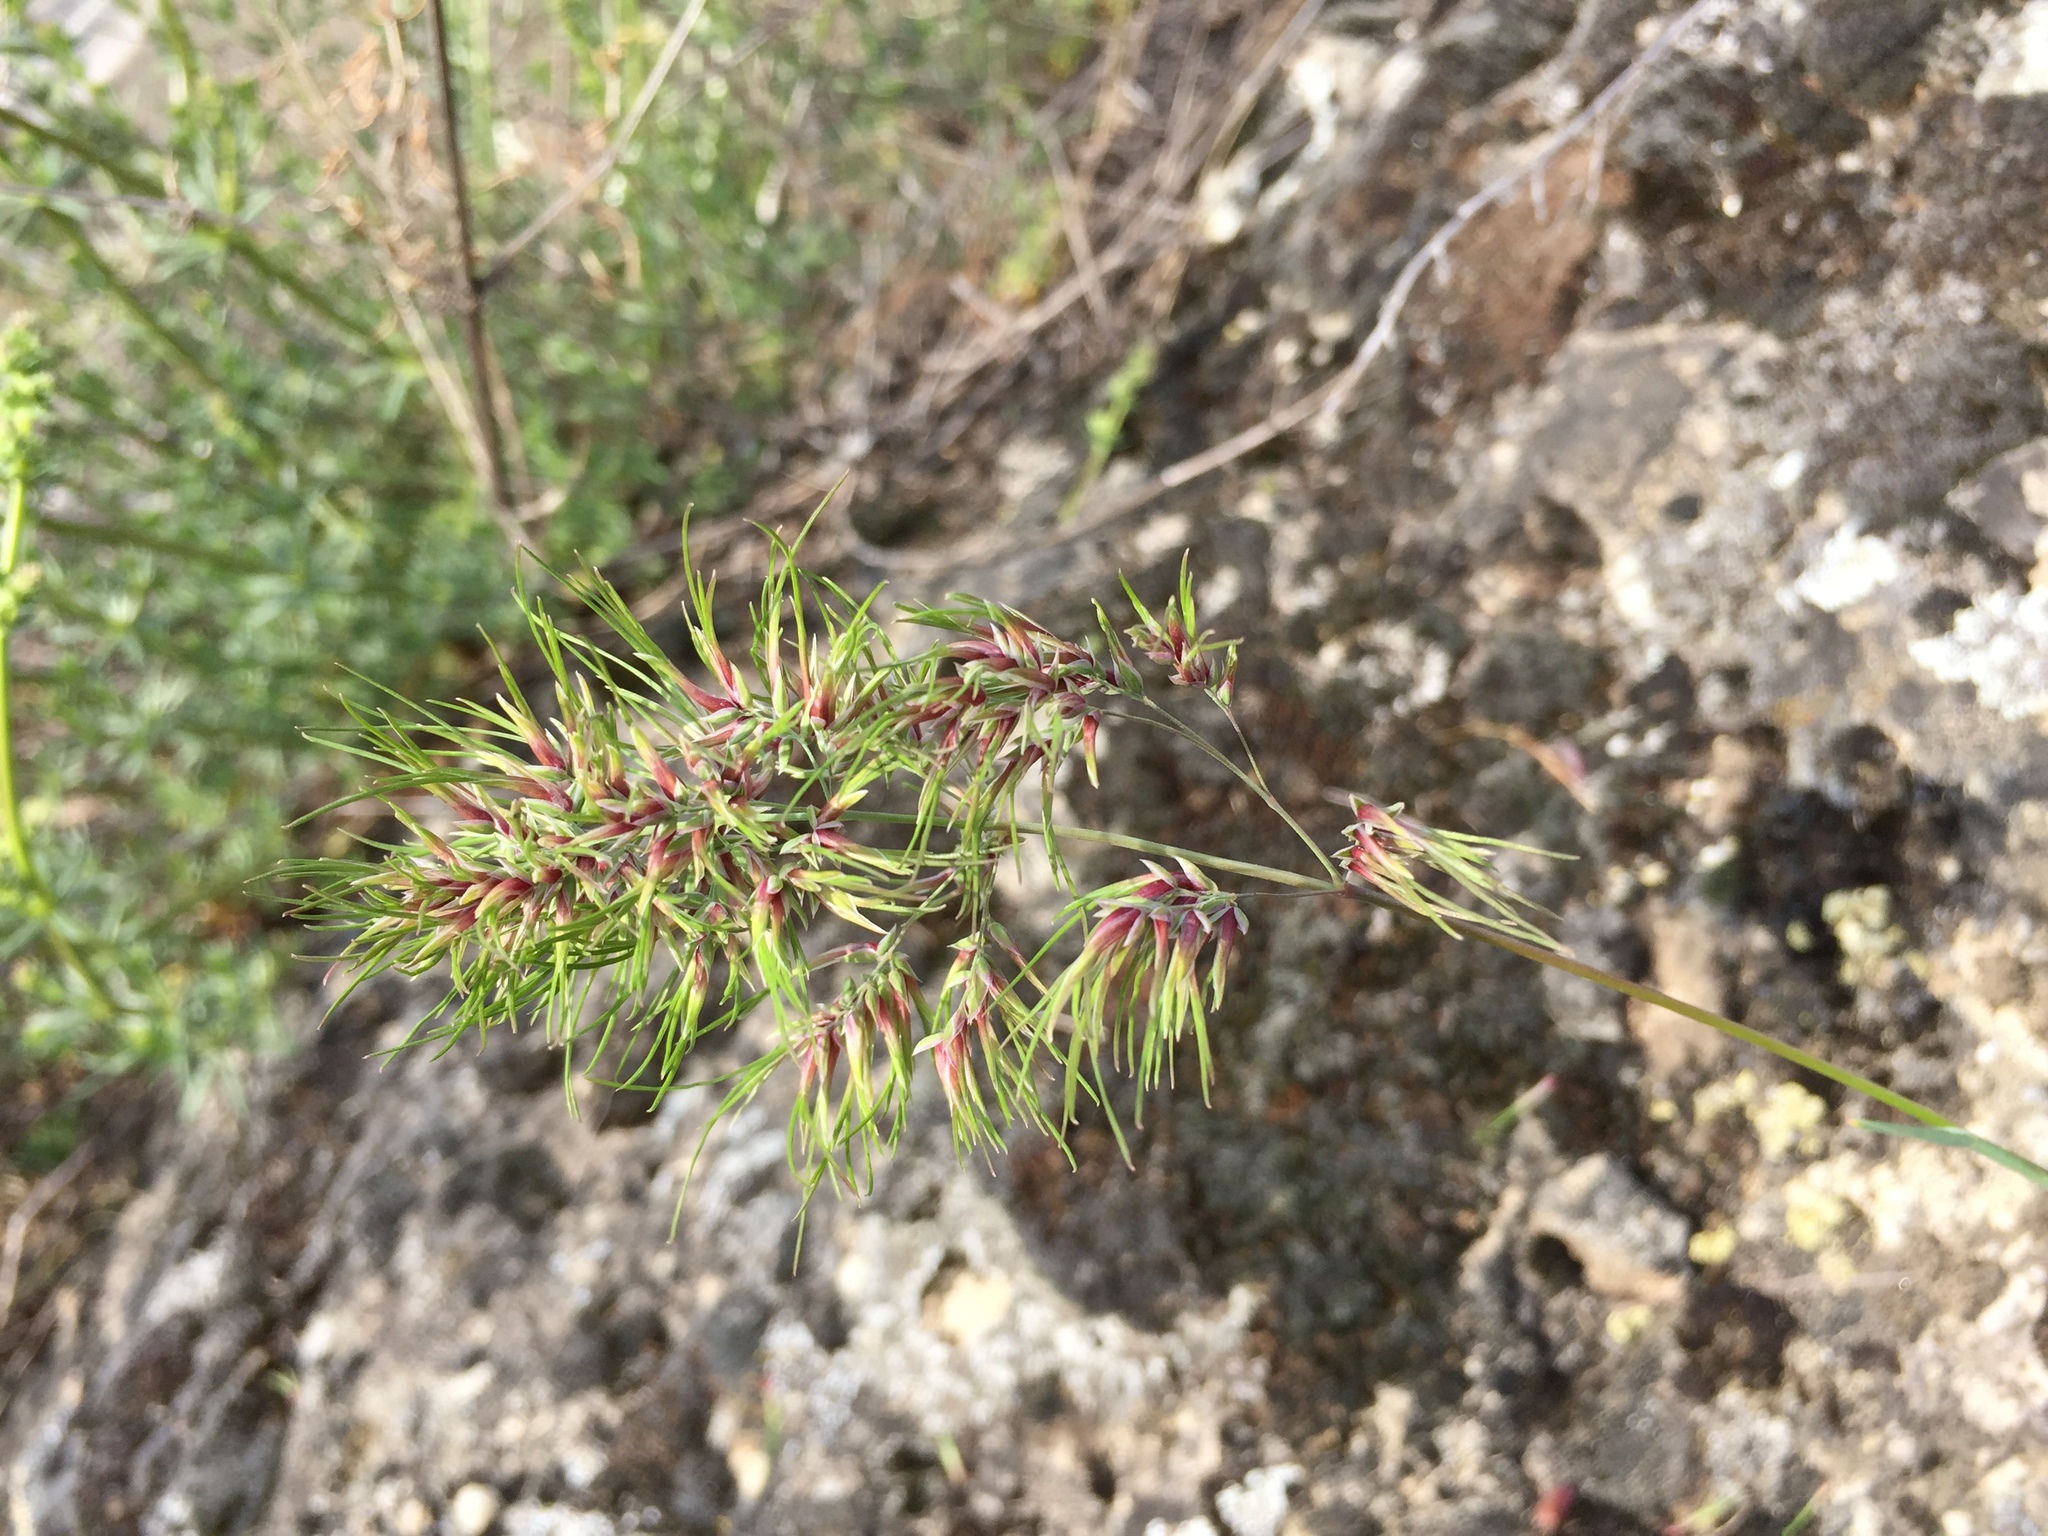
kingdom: Plantae
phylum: Tracheophyta
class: Liliopsida
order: Poales
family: Poaceae
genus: Poa
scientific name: Poa bulbosa
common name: Bulbous bluegrass
